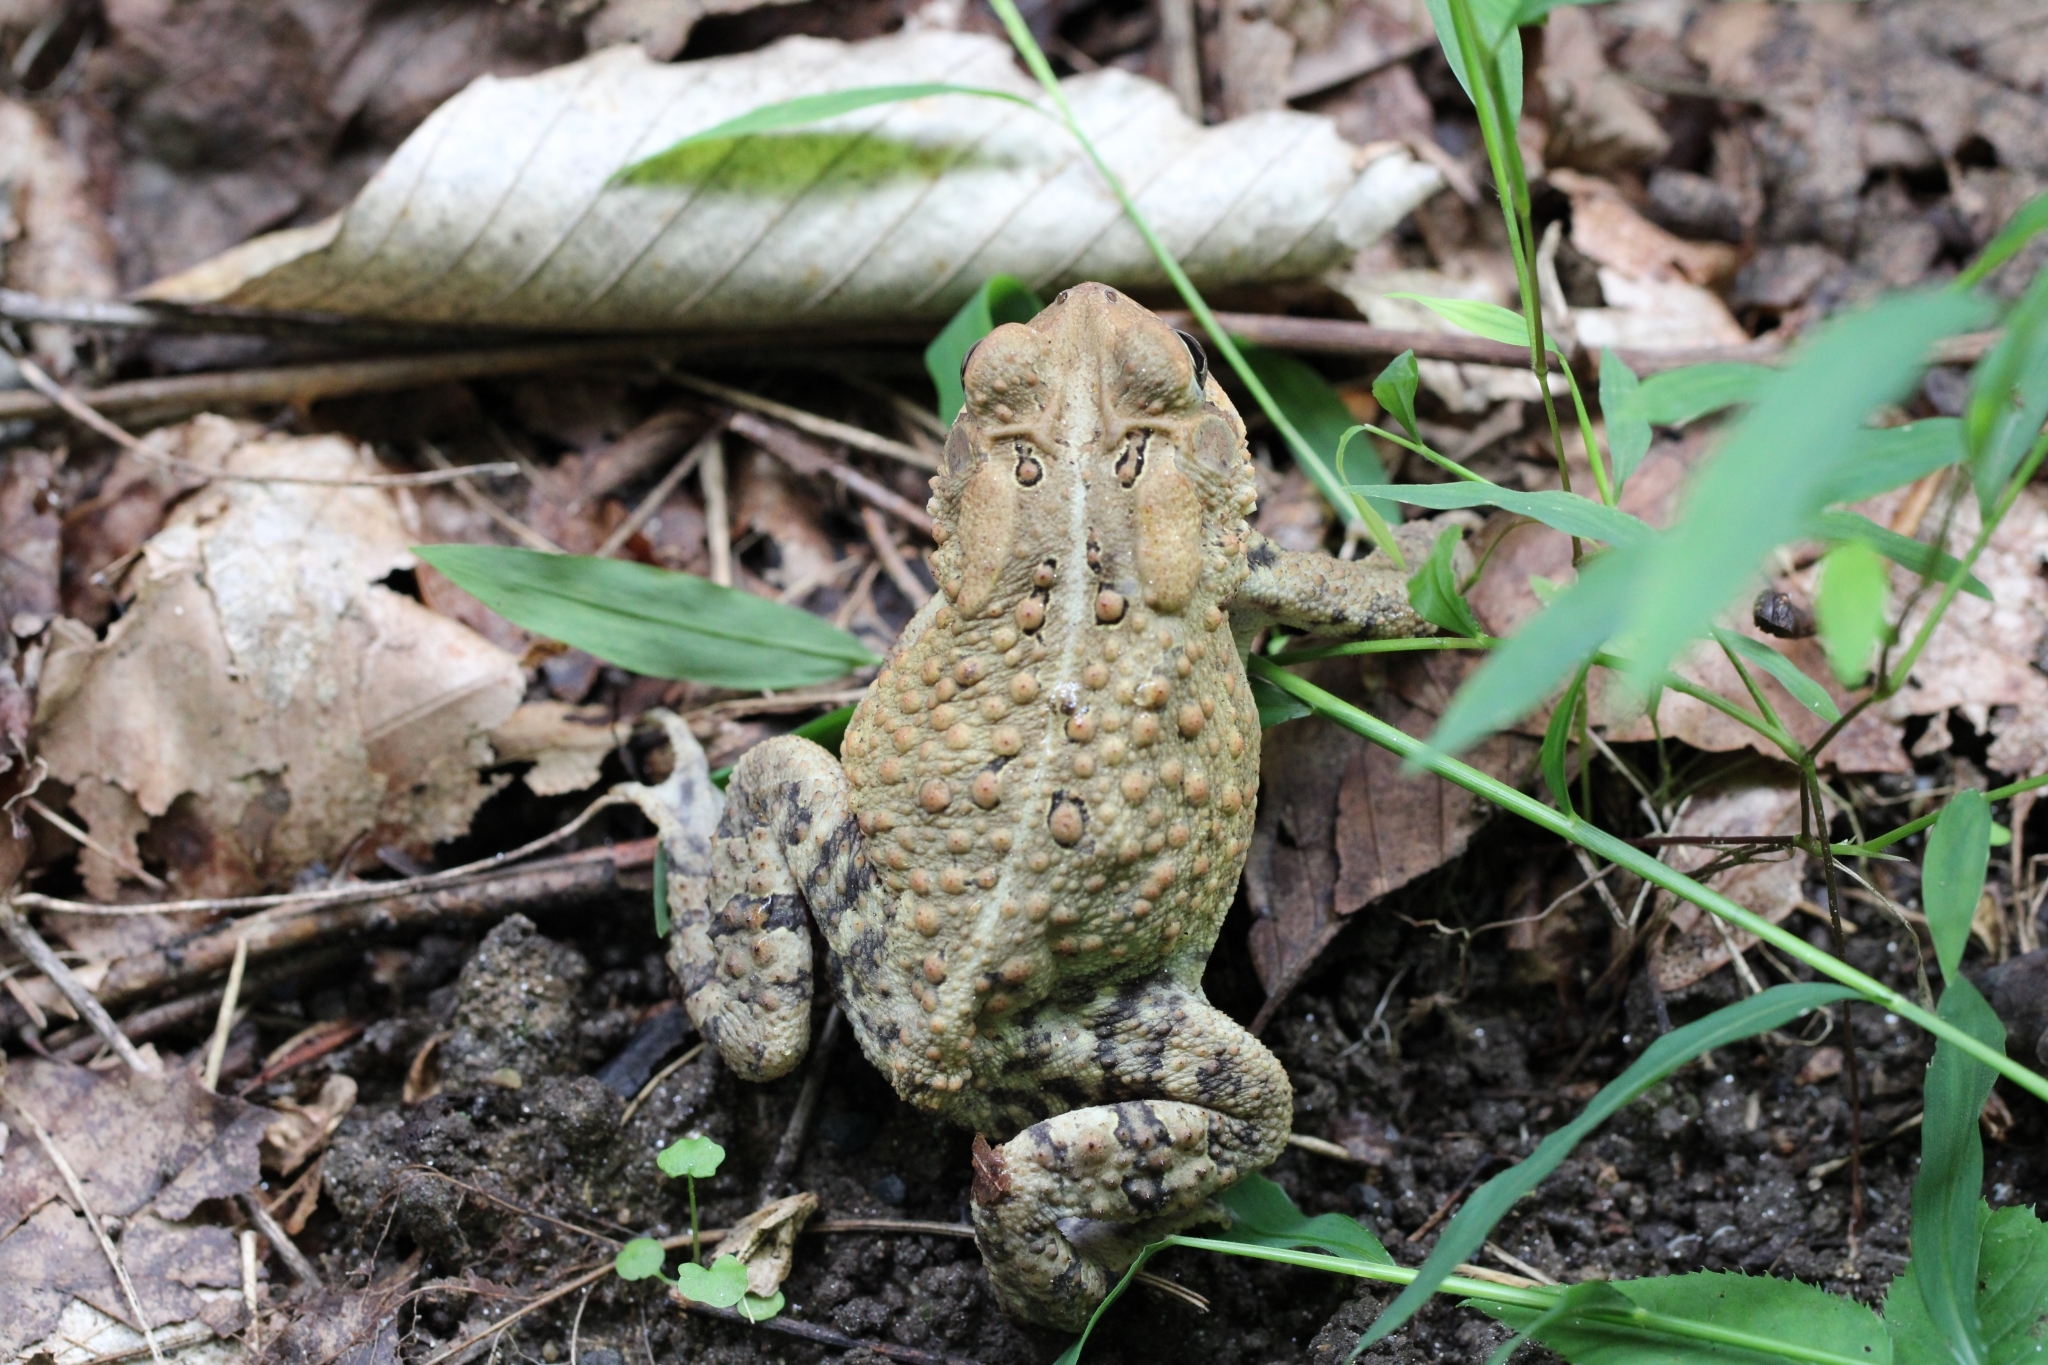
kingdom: Animalia
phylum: Chordata
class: Amphibia
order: Anura
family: Bufonidae
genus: Anaxyrus
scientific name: Anaxyrus americanus
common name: American toad
